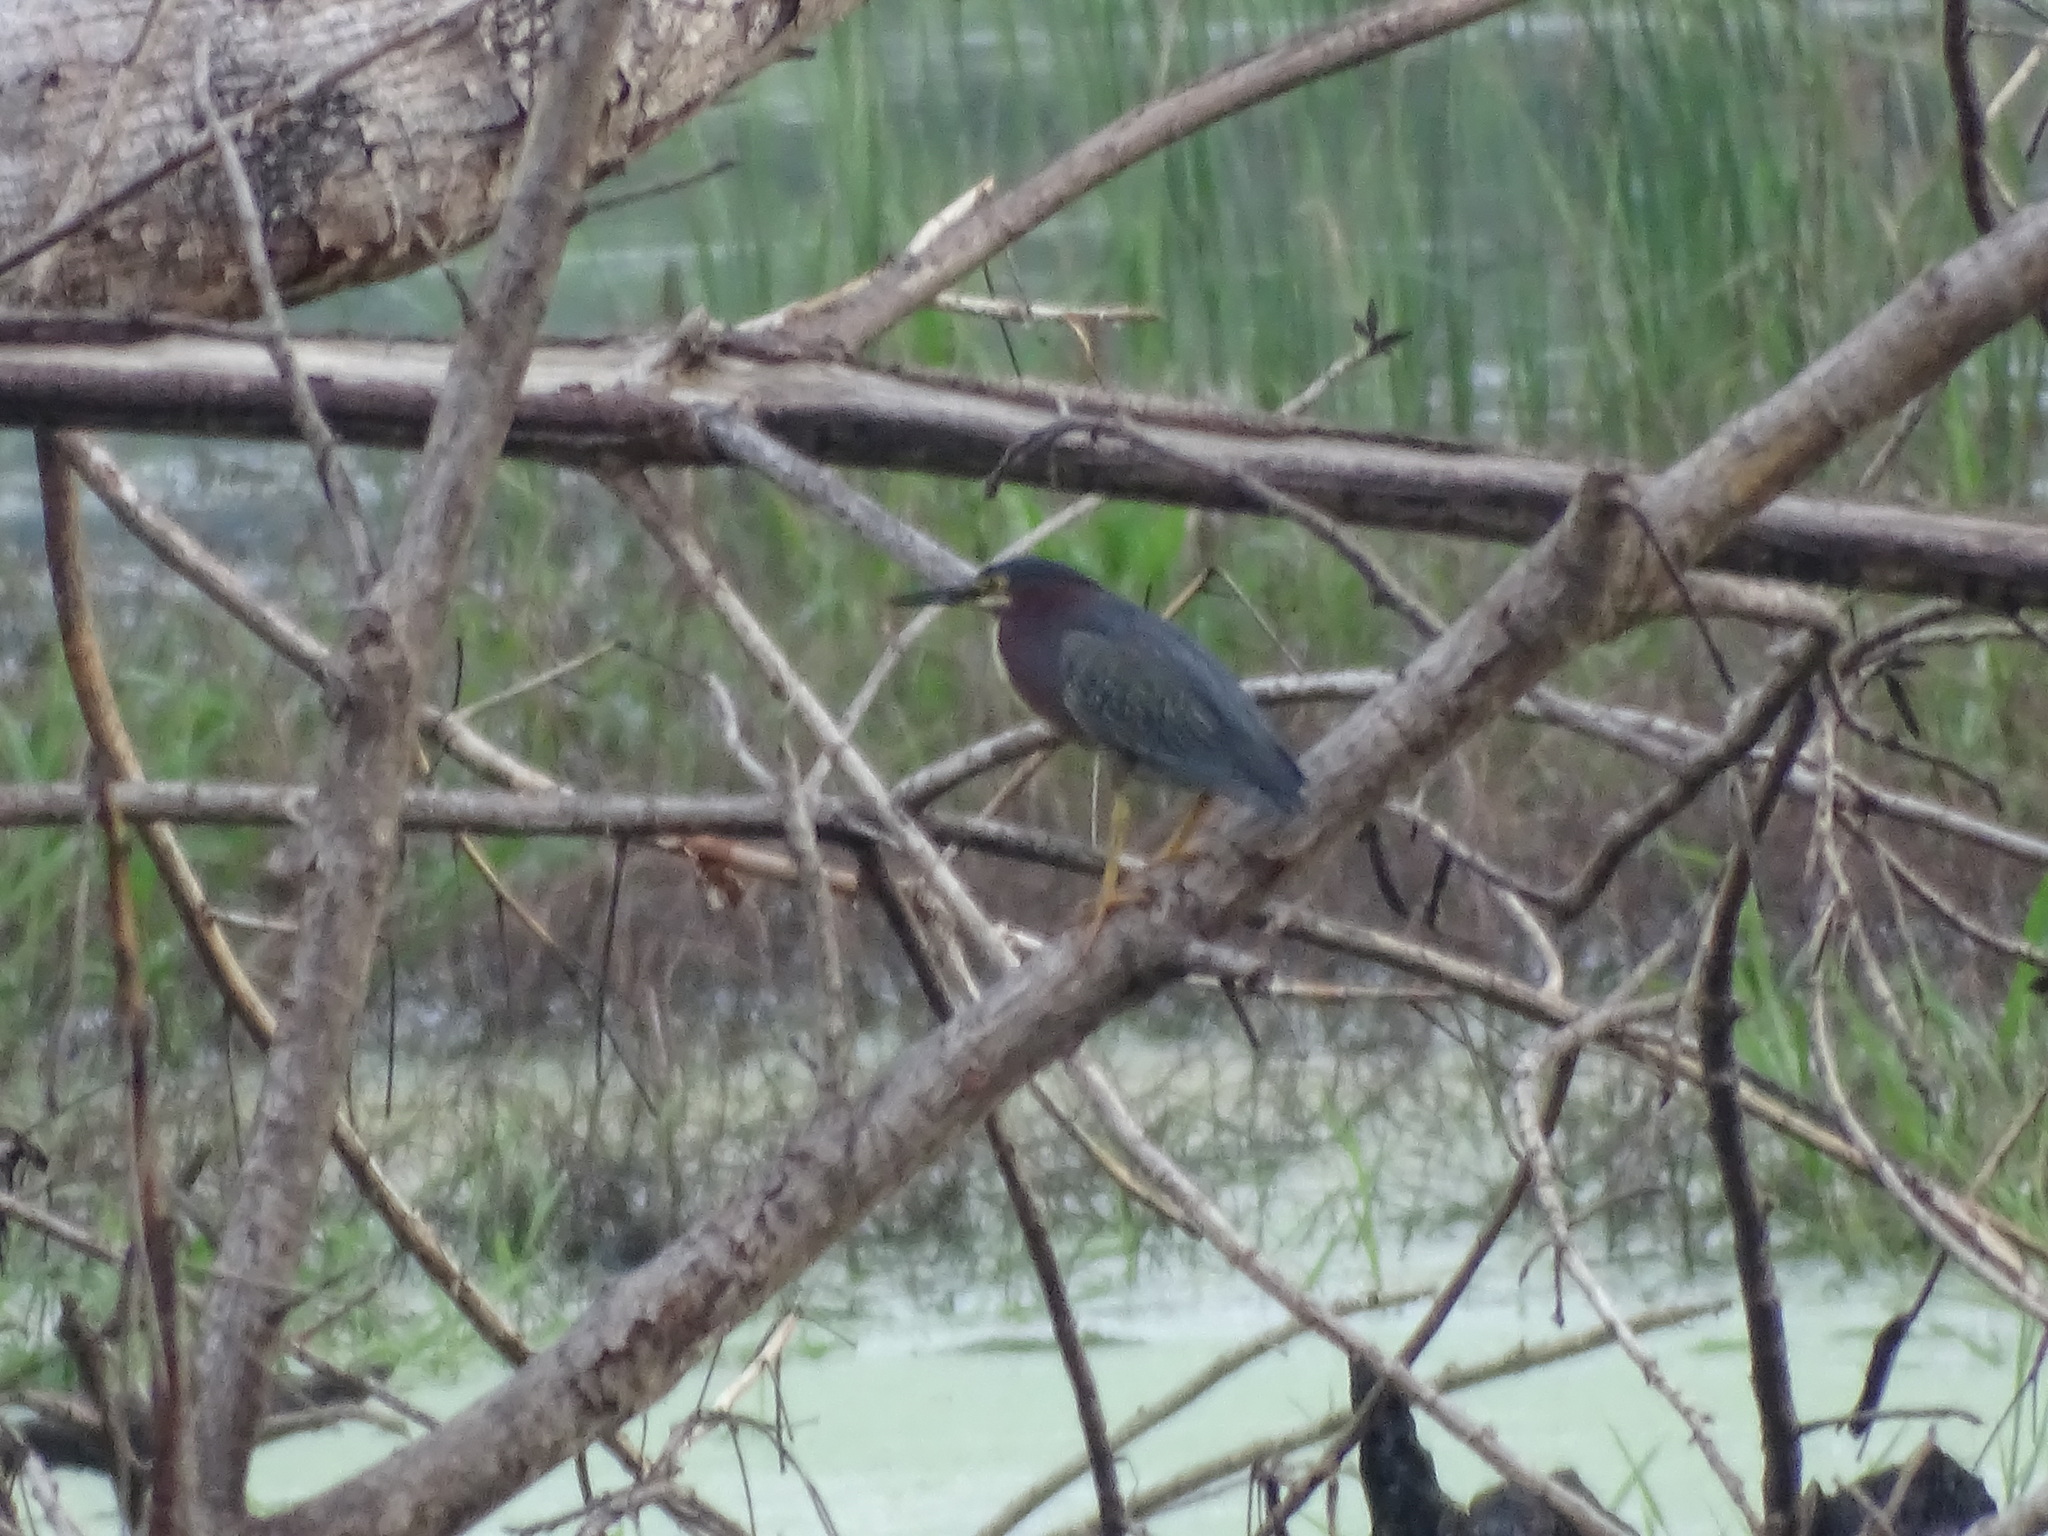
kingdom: Animalia
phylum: Chordata
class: Aves
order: Pelecaniformes
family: Ardeidae
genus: Butorides
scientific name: Butorides virescens
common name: Green heron
